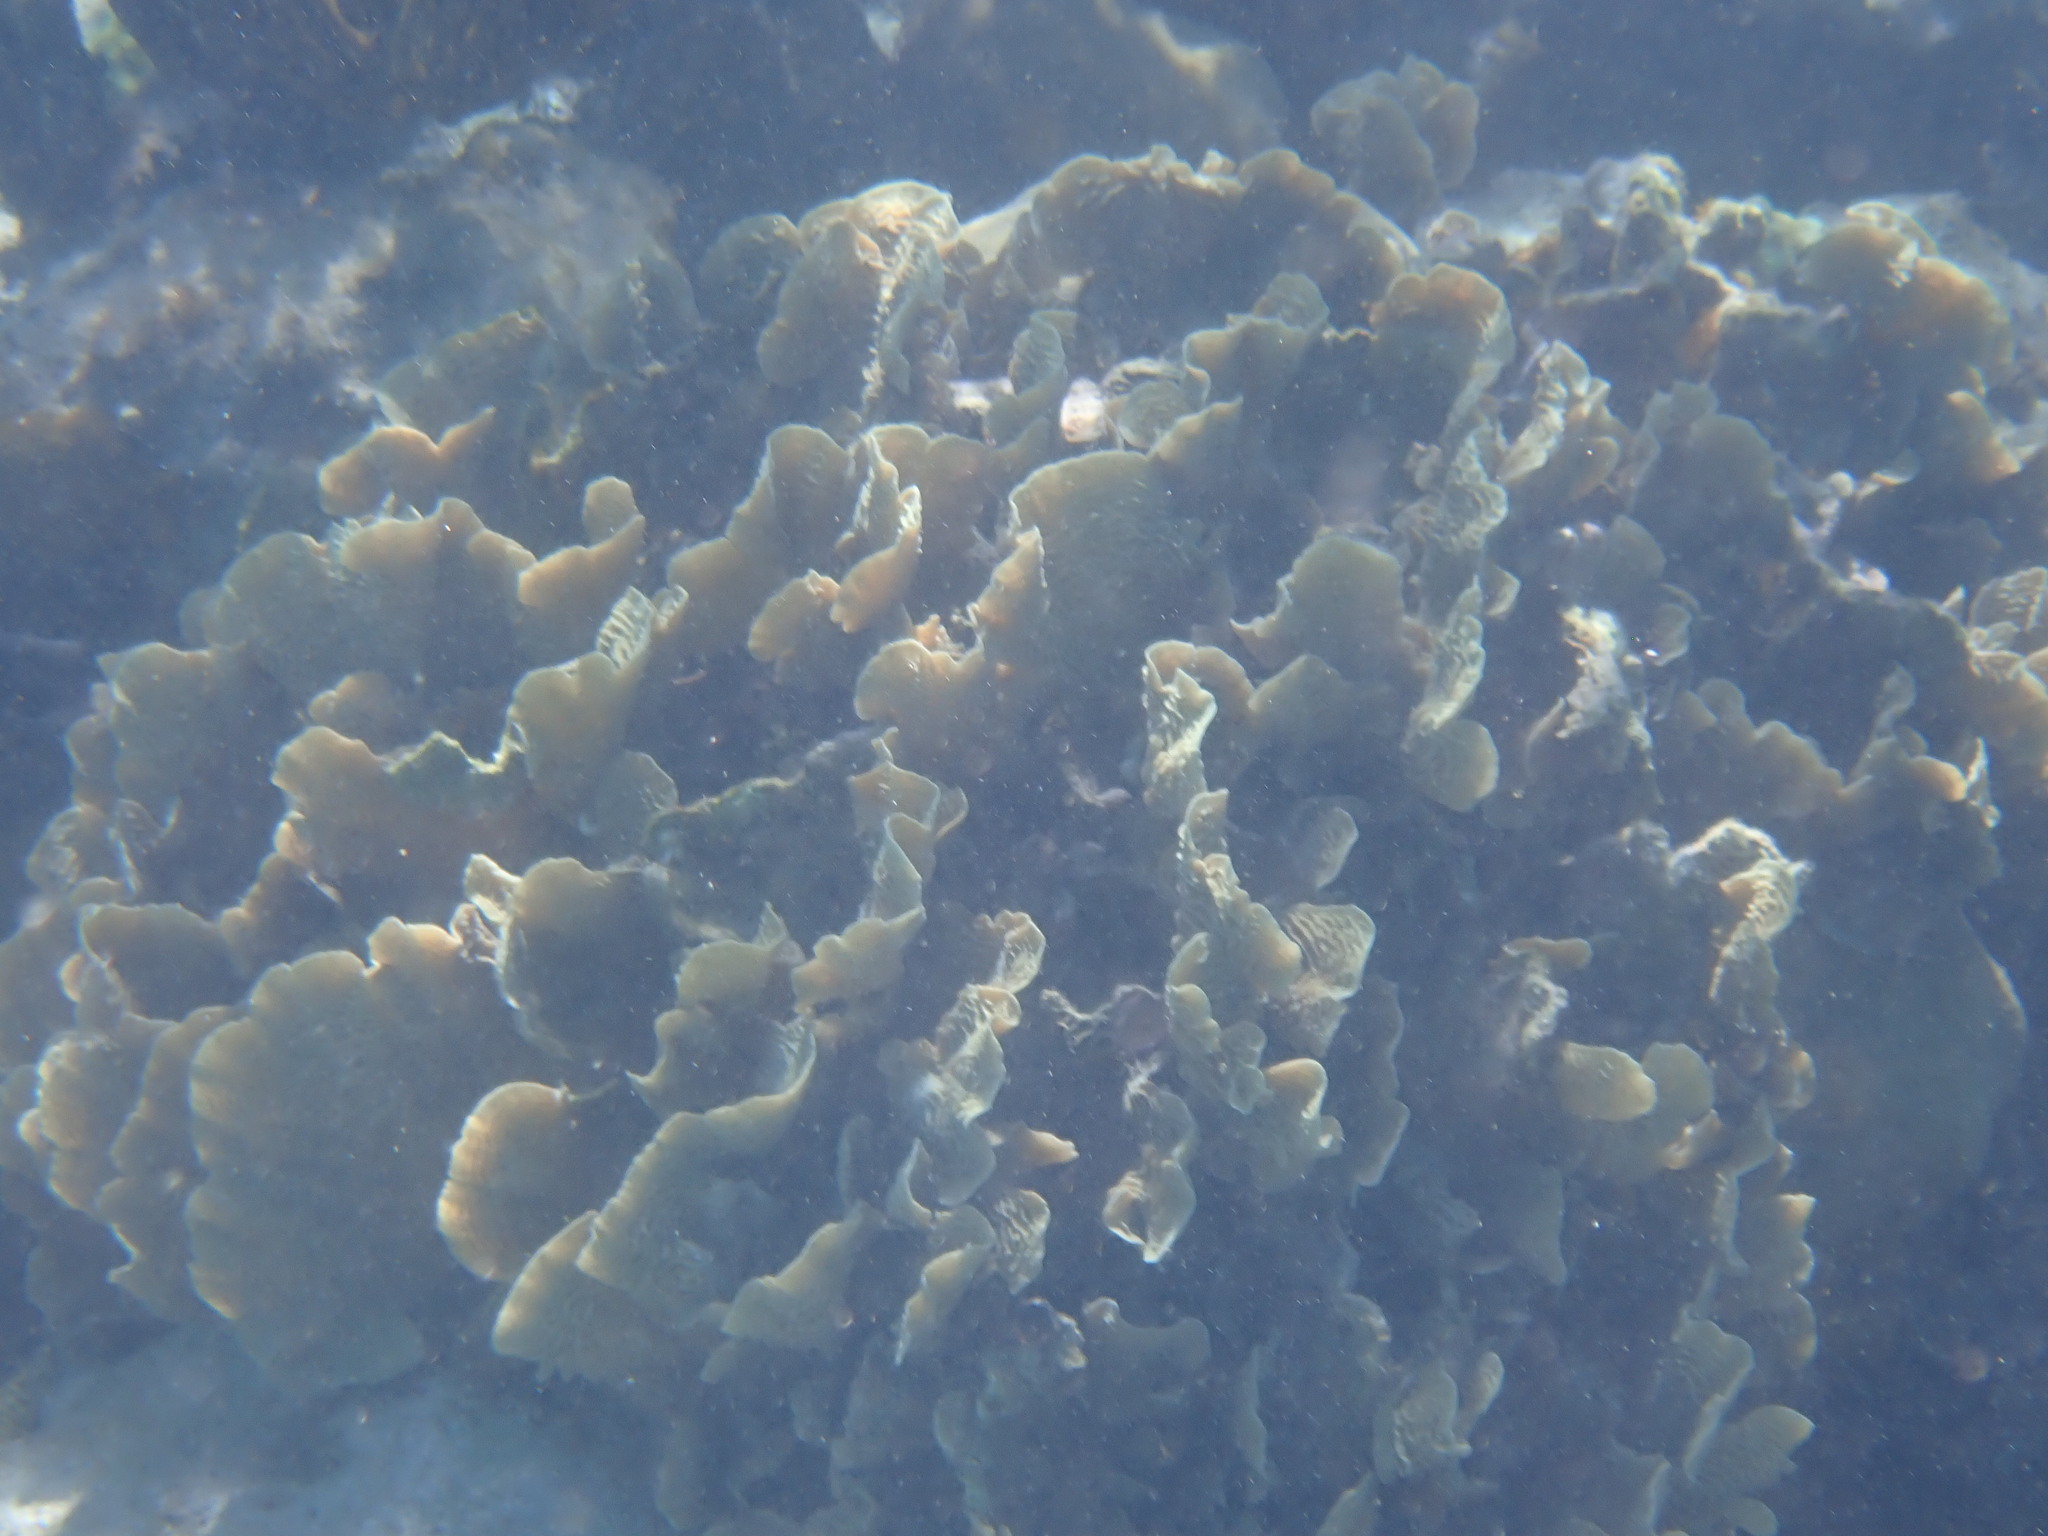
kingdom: Animalia
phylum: Cnidaria
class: Anthozoa
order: Scleractinia
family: Agariciidae
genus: Agaricia
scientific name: Agaricia tenuifolia
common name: Thin leaf lettuce coral
